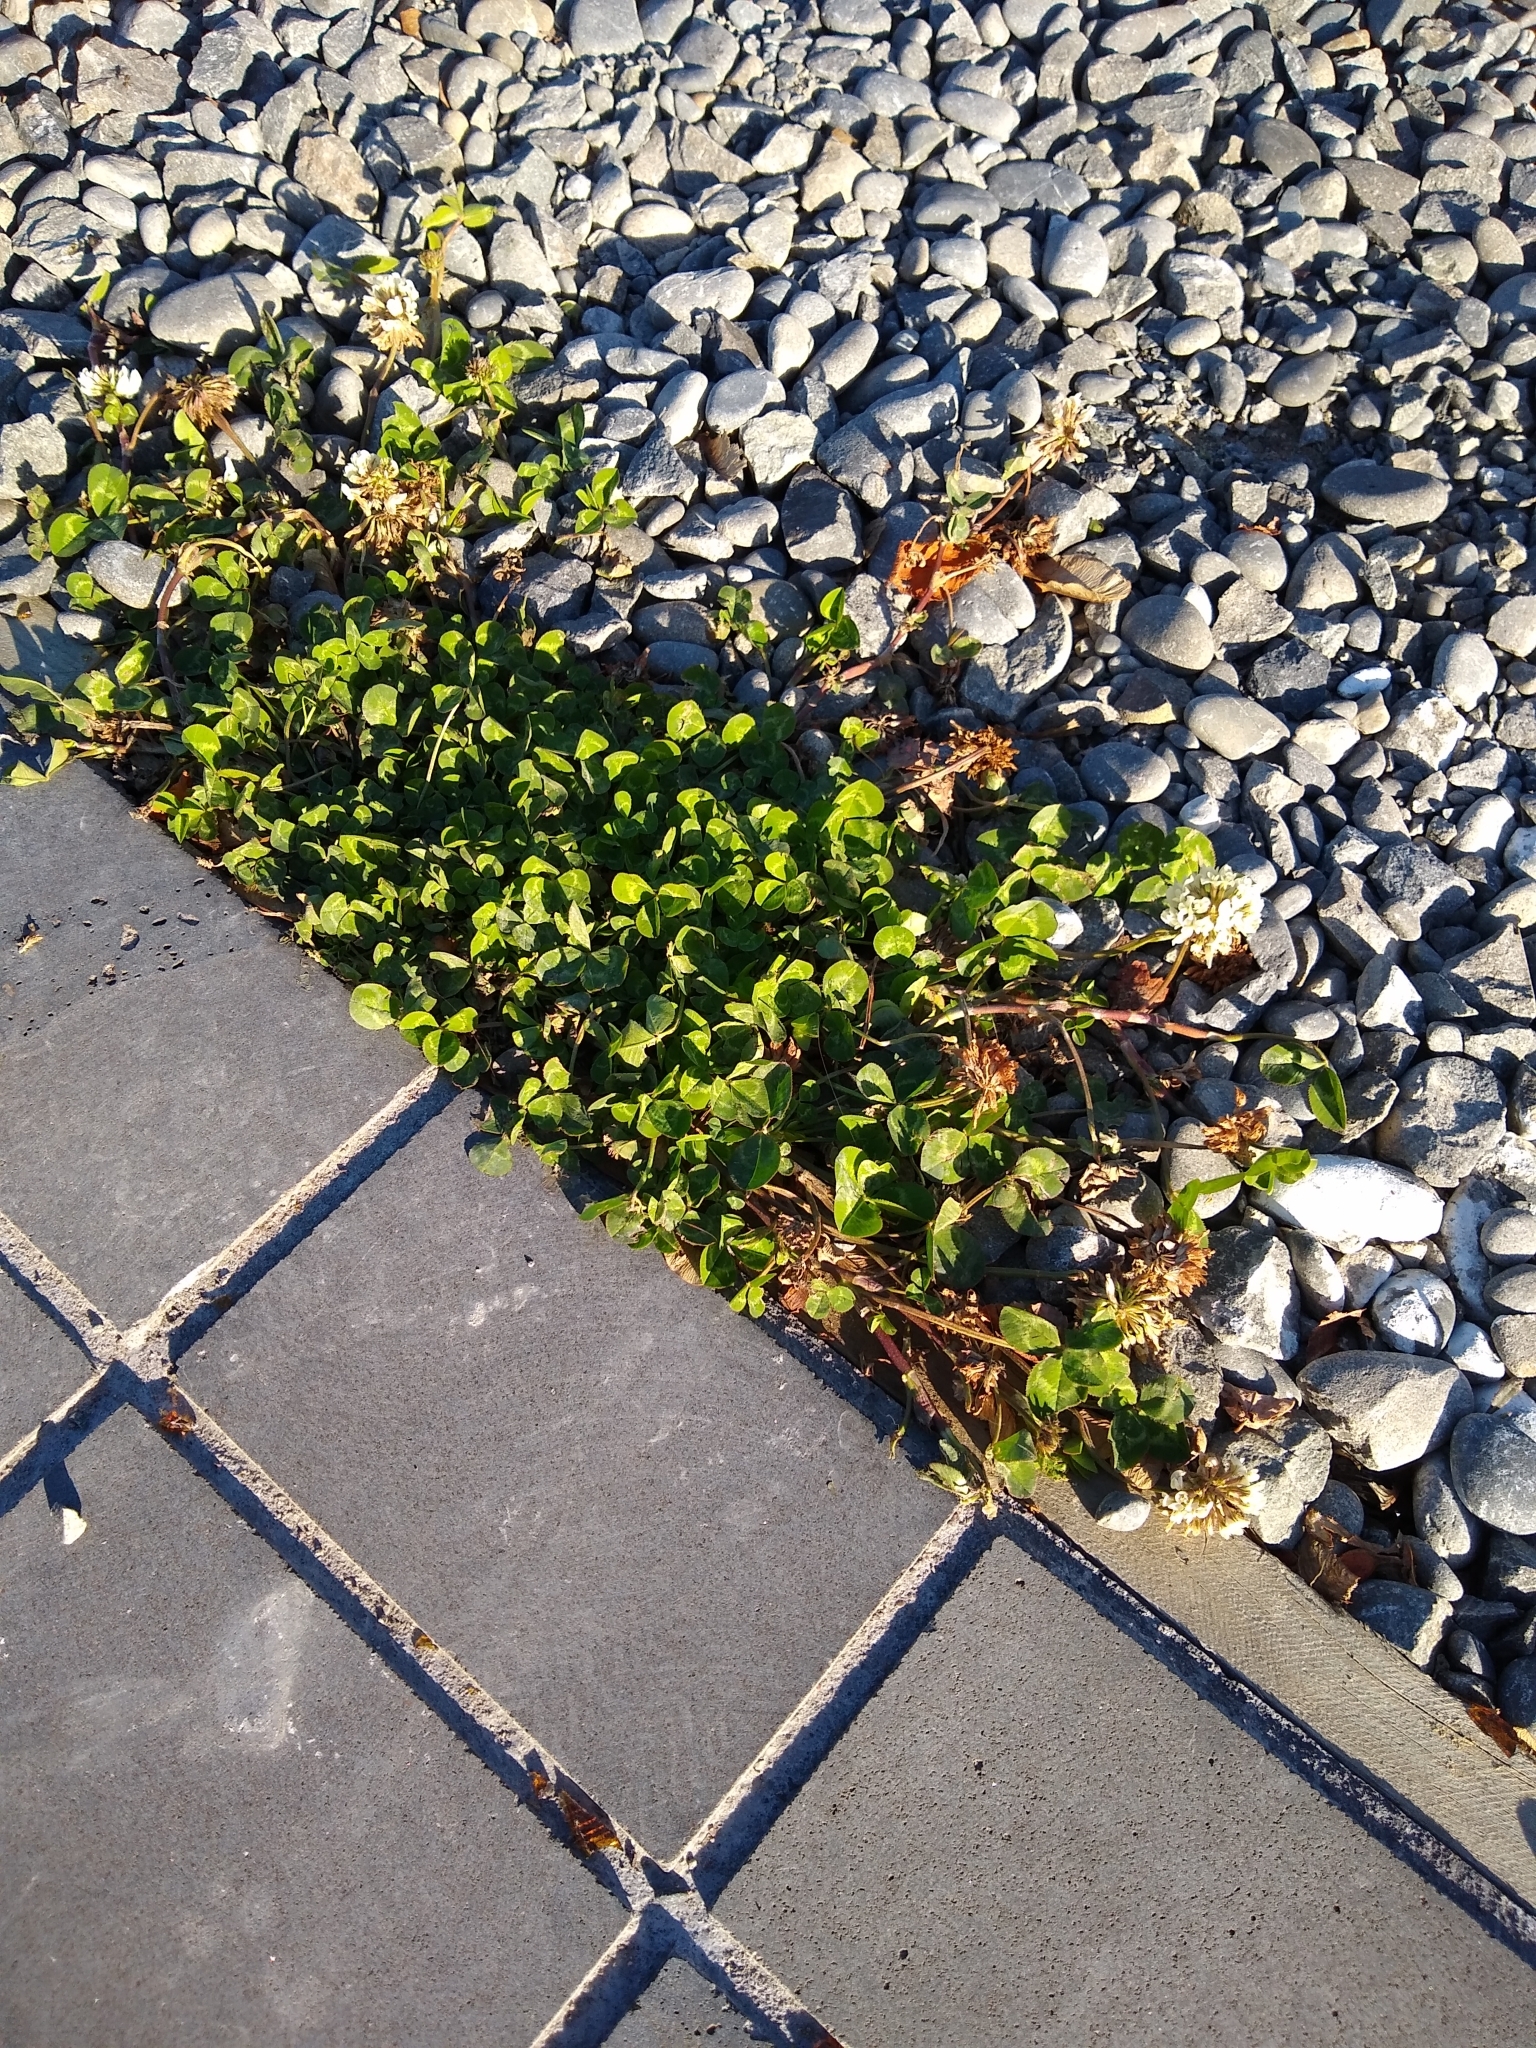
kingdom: Plantae
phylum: Tracheophyta
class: Magnoliopsida
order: Fabales
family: Fabaceae
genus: Trifolium
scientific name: Trifolium repens
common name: White clover
